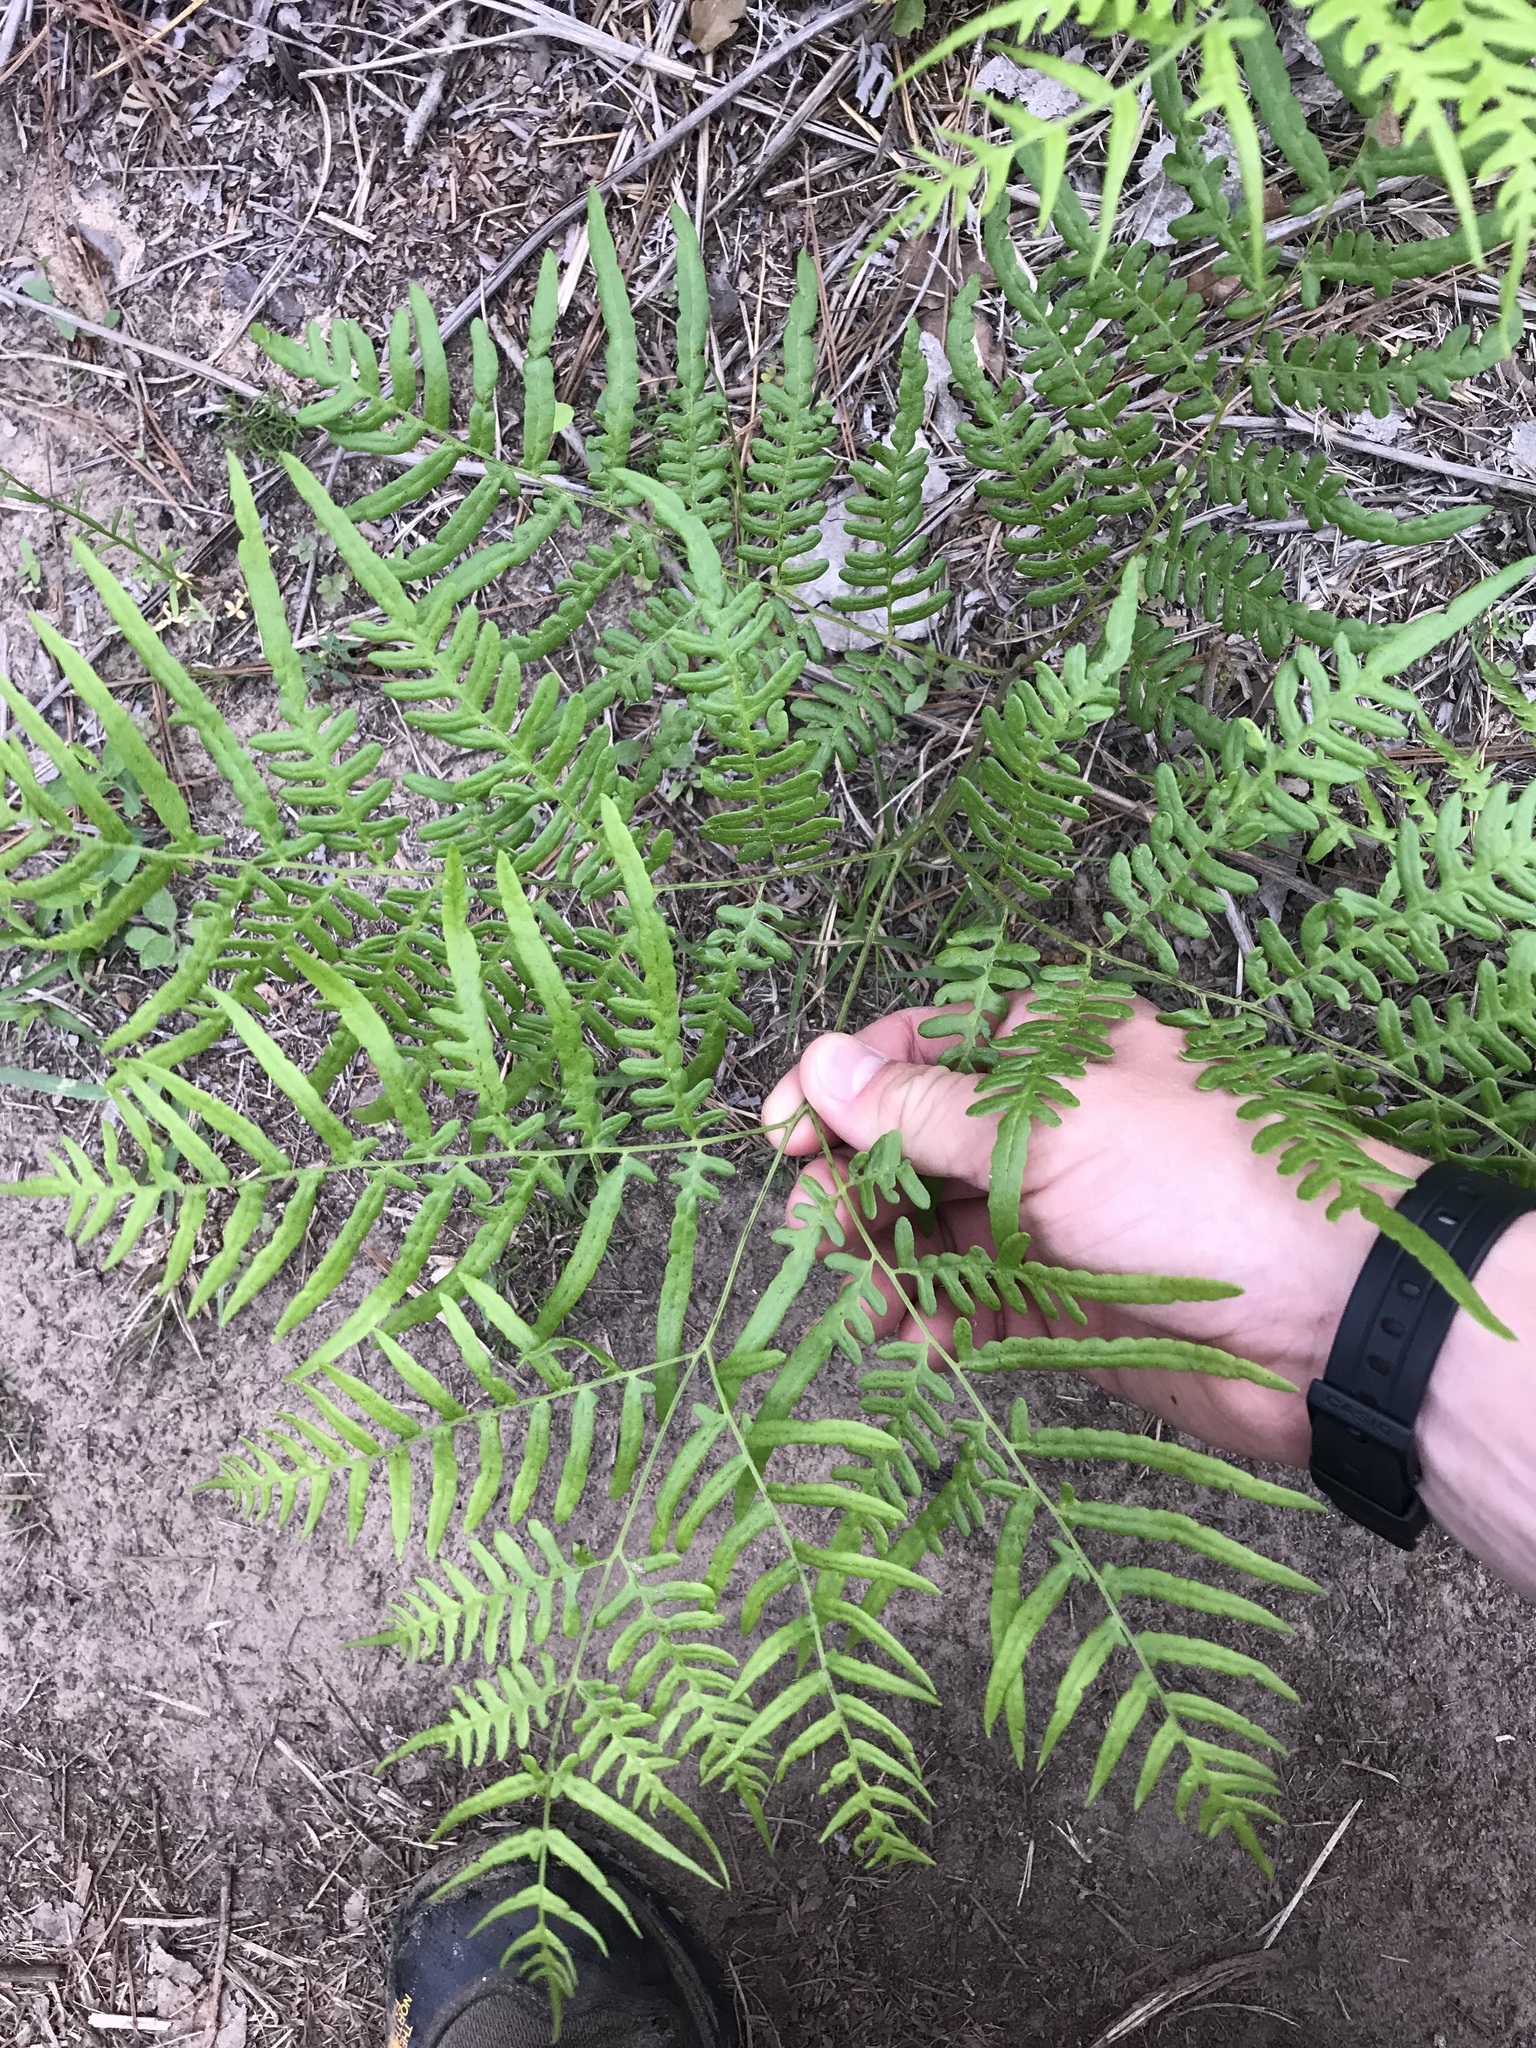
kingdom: Plantae
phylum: Tracheophyta
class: Polypodiopsida
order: Polypodiales
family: Dennstaedtiaceae
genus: Pteridium
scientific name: Pteridium aquilinum
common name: Bracken
